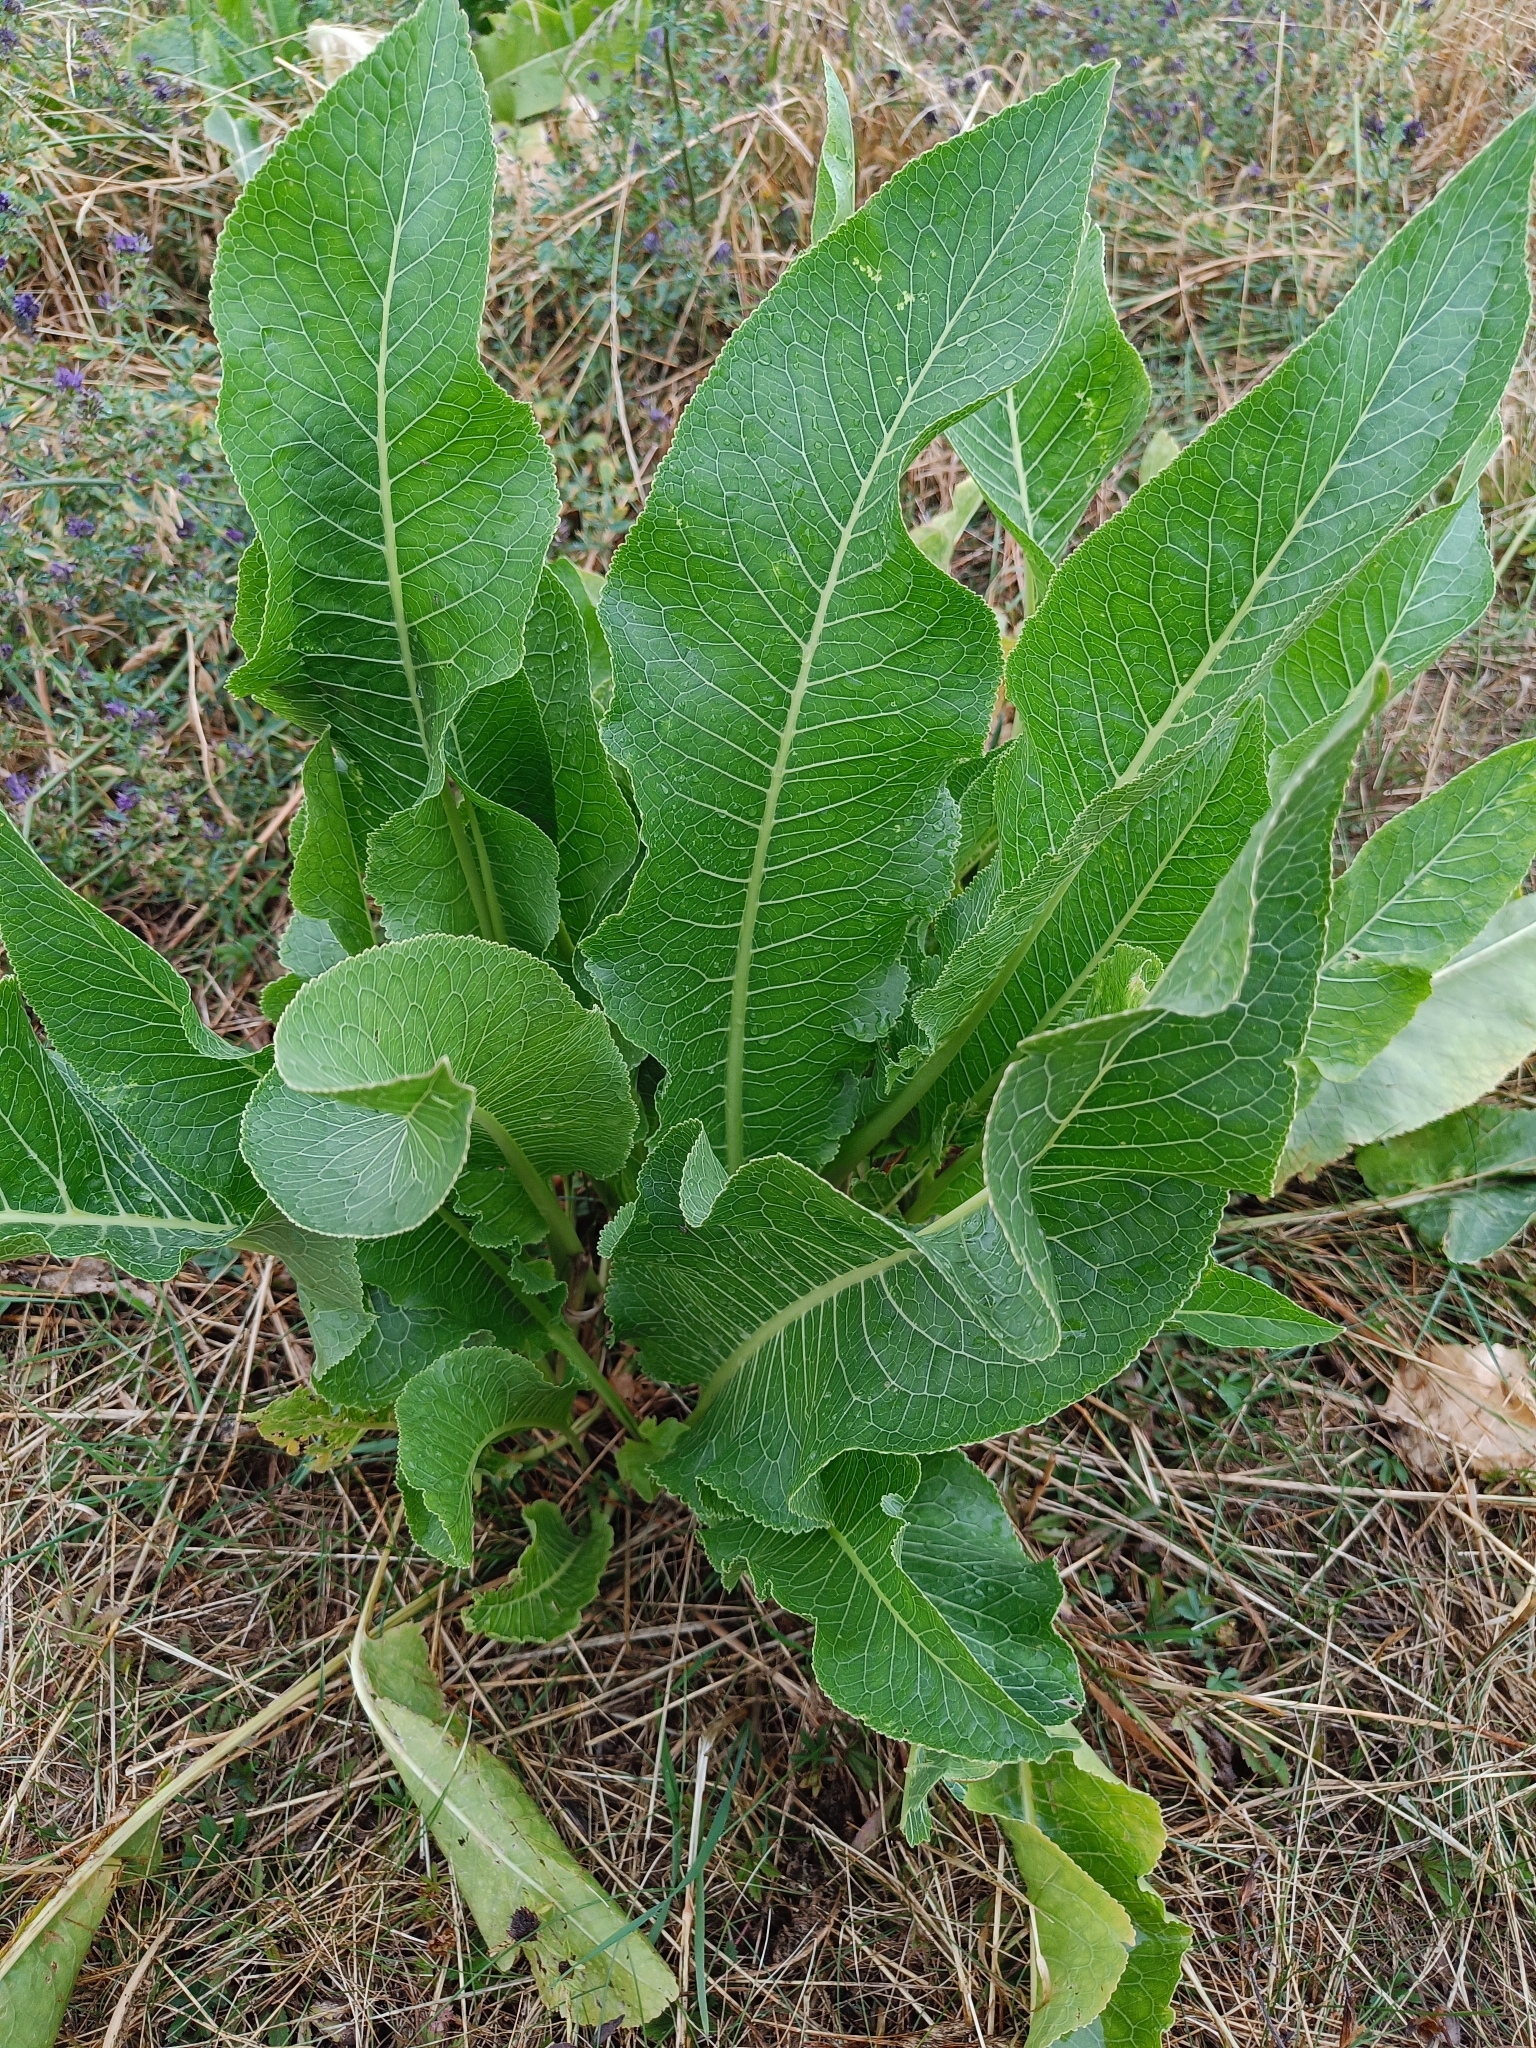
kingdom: Plantae
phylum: Tracheophyta
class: Magnoliopsida
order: Brassicales
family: Brassicaceae
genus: Armoracia
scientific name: Armoracia rusticana
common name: Horseradish
